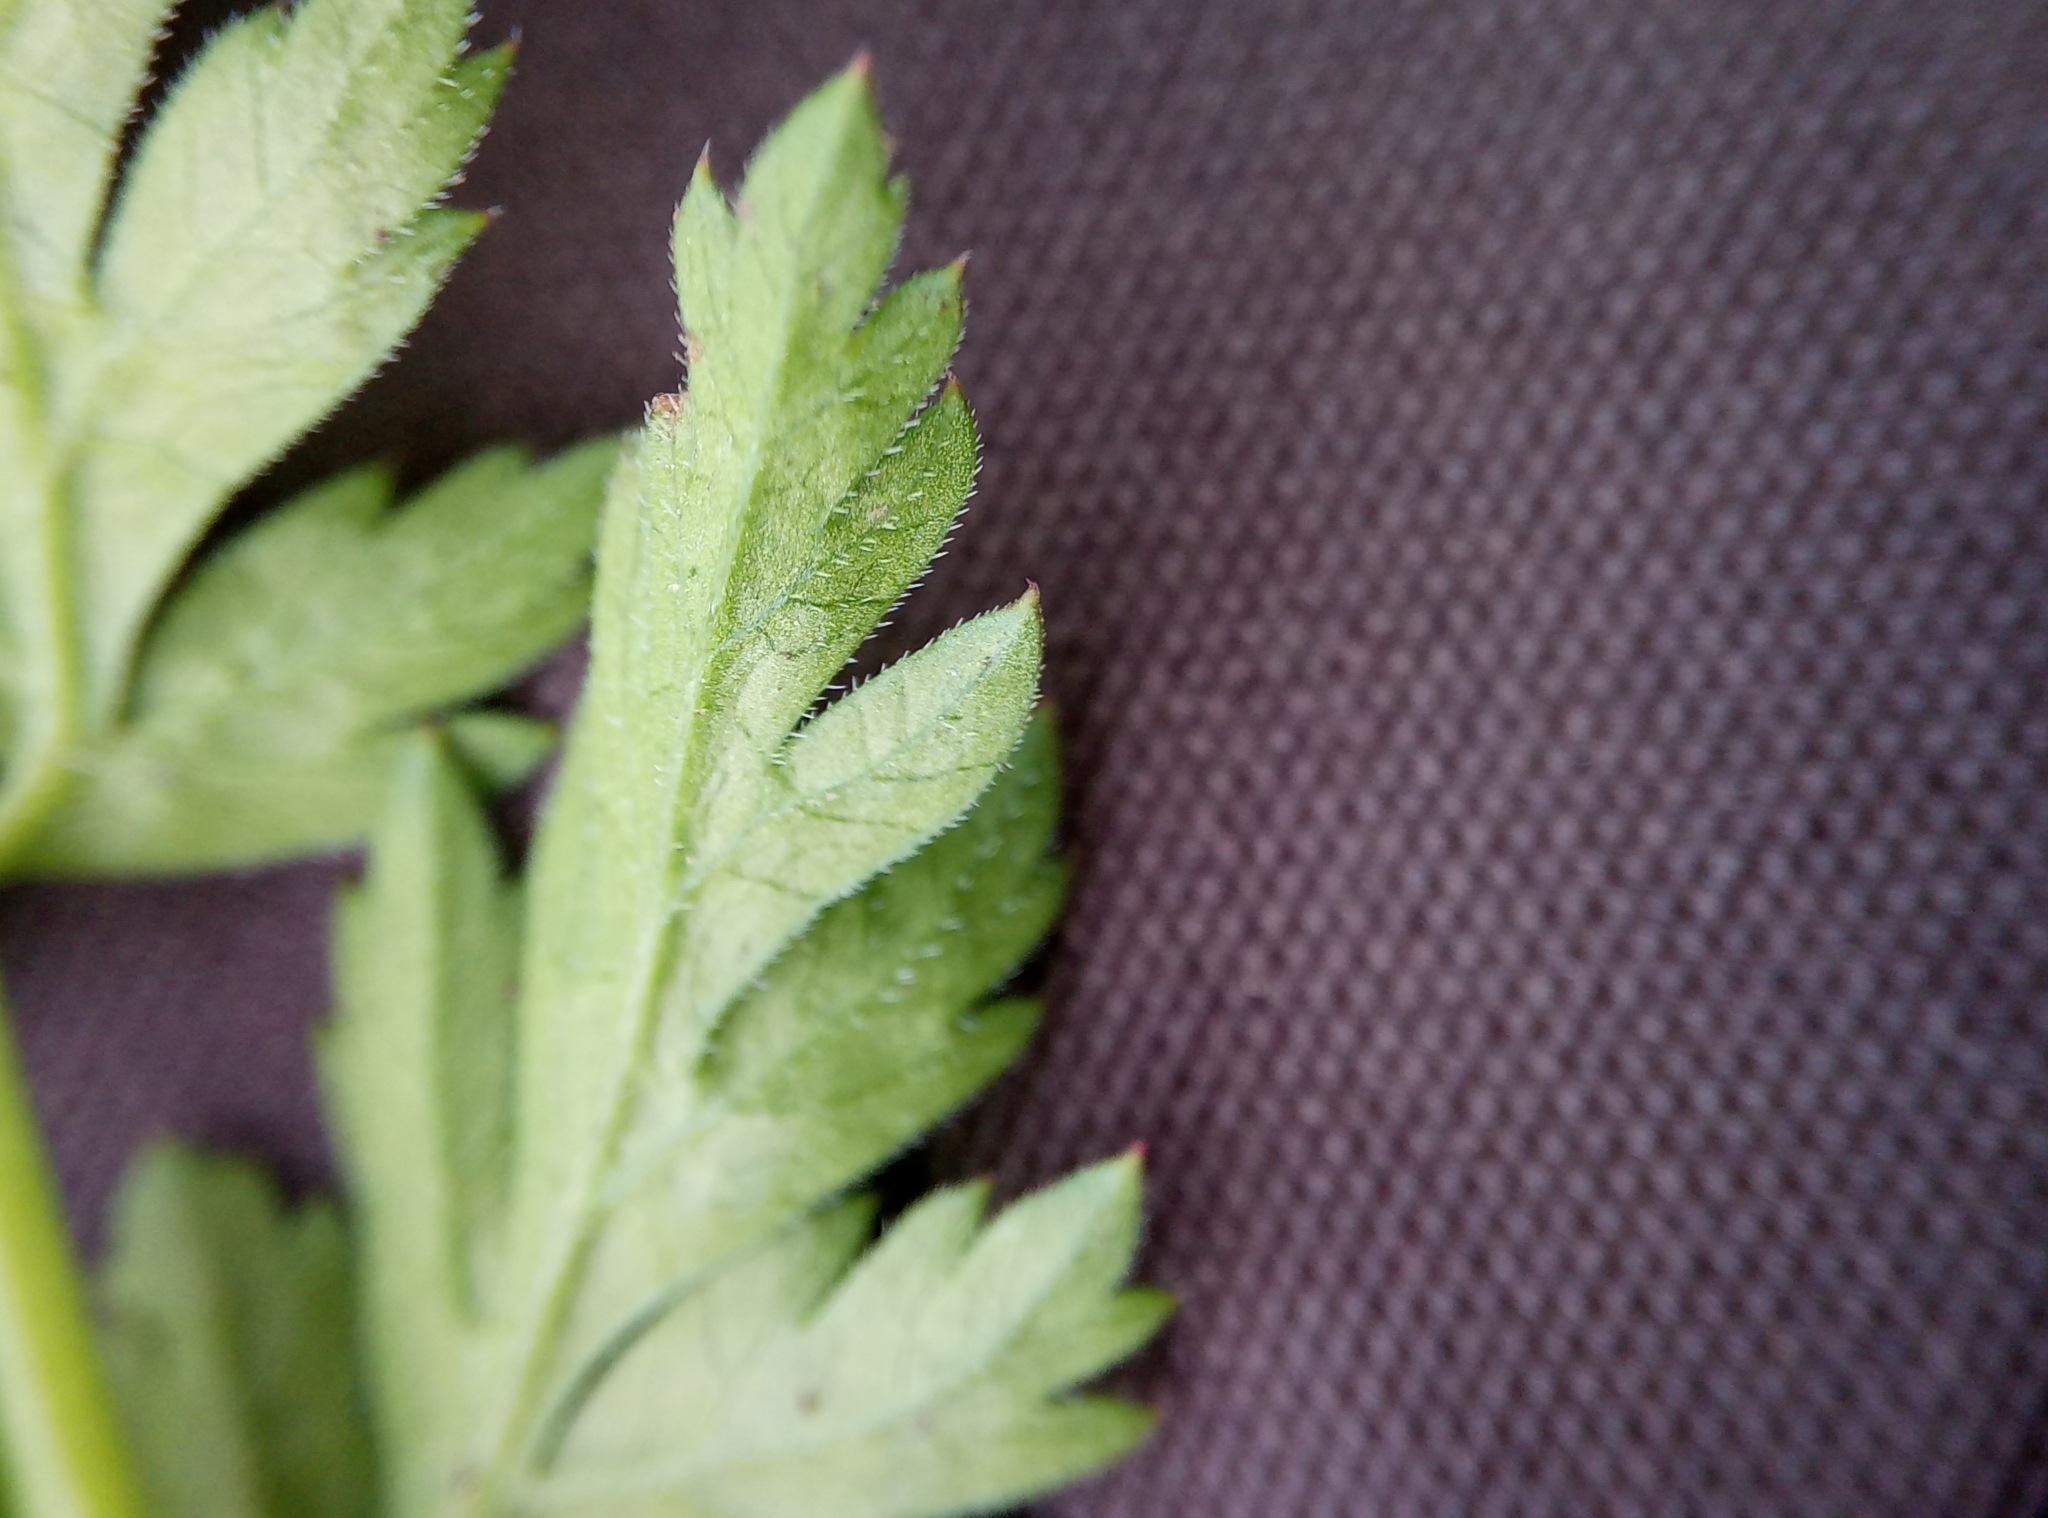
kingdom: Plantae
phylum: Tracheophyta
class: Magnoliopsida
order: Apiales
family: Apiaceae
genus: Anthriscus
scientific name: Anthriscus sylvestris
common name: Cow parsley
